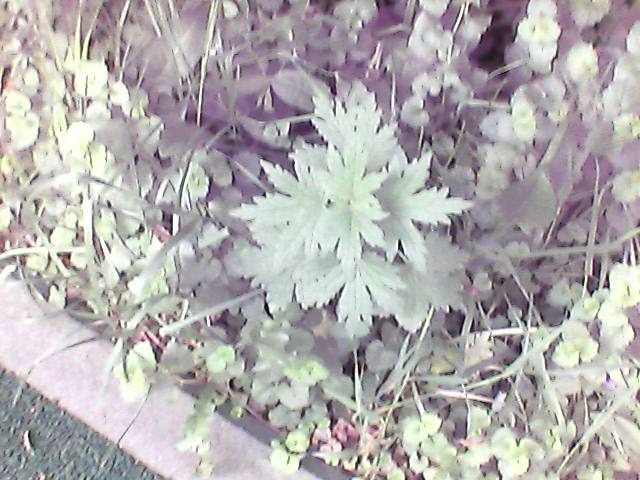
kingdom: Plantae
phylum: Tracheophyta
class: Magnoliopsida
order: Asterales
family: Asteraceae
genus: Artemisia
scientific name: Artemisia vulgaris
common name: Mugwort
